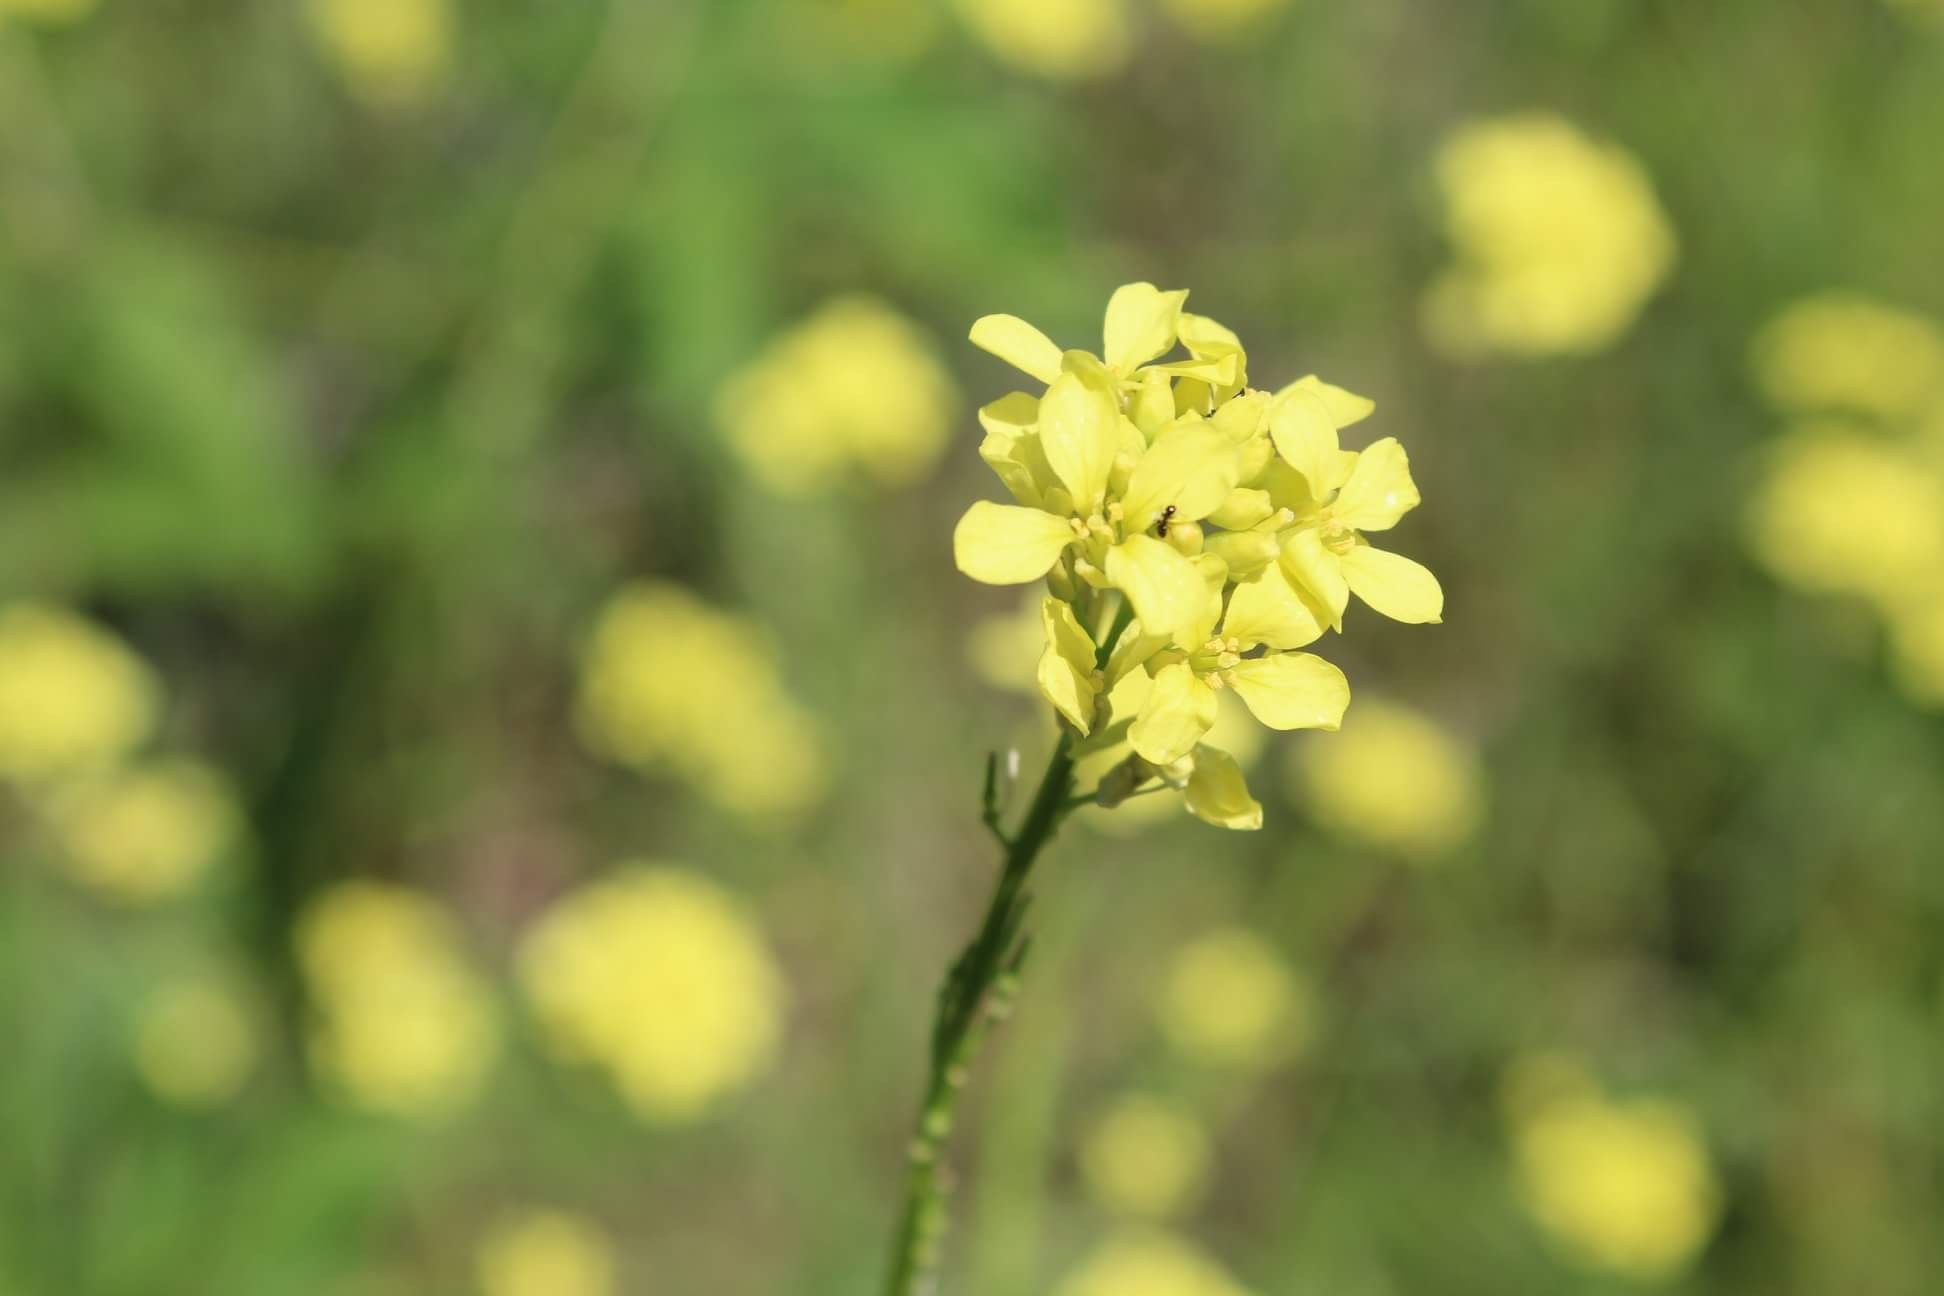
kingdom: Plantae
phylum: Tracheophyta
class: Magnoliopsida
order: Brassicales
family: Brassicaceae
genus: Rapistrum
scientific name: Rapistrum rugosum
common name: Annual bastardcabbage
